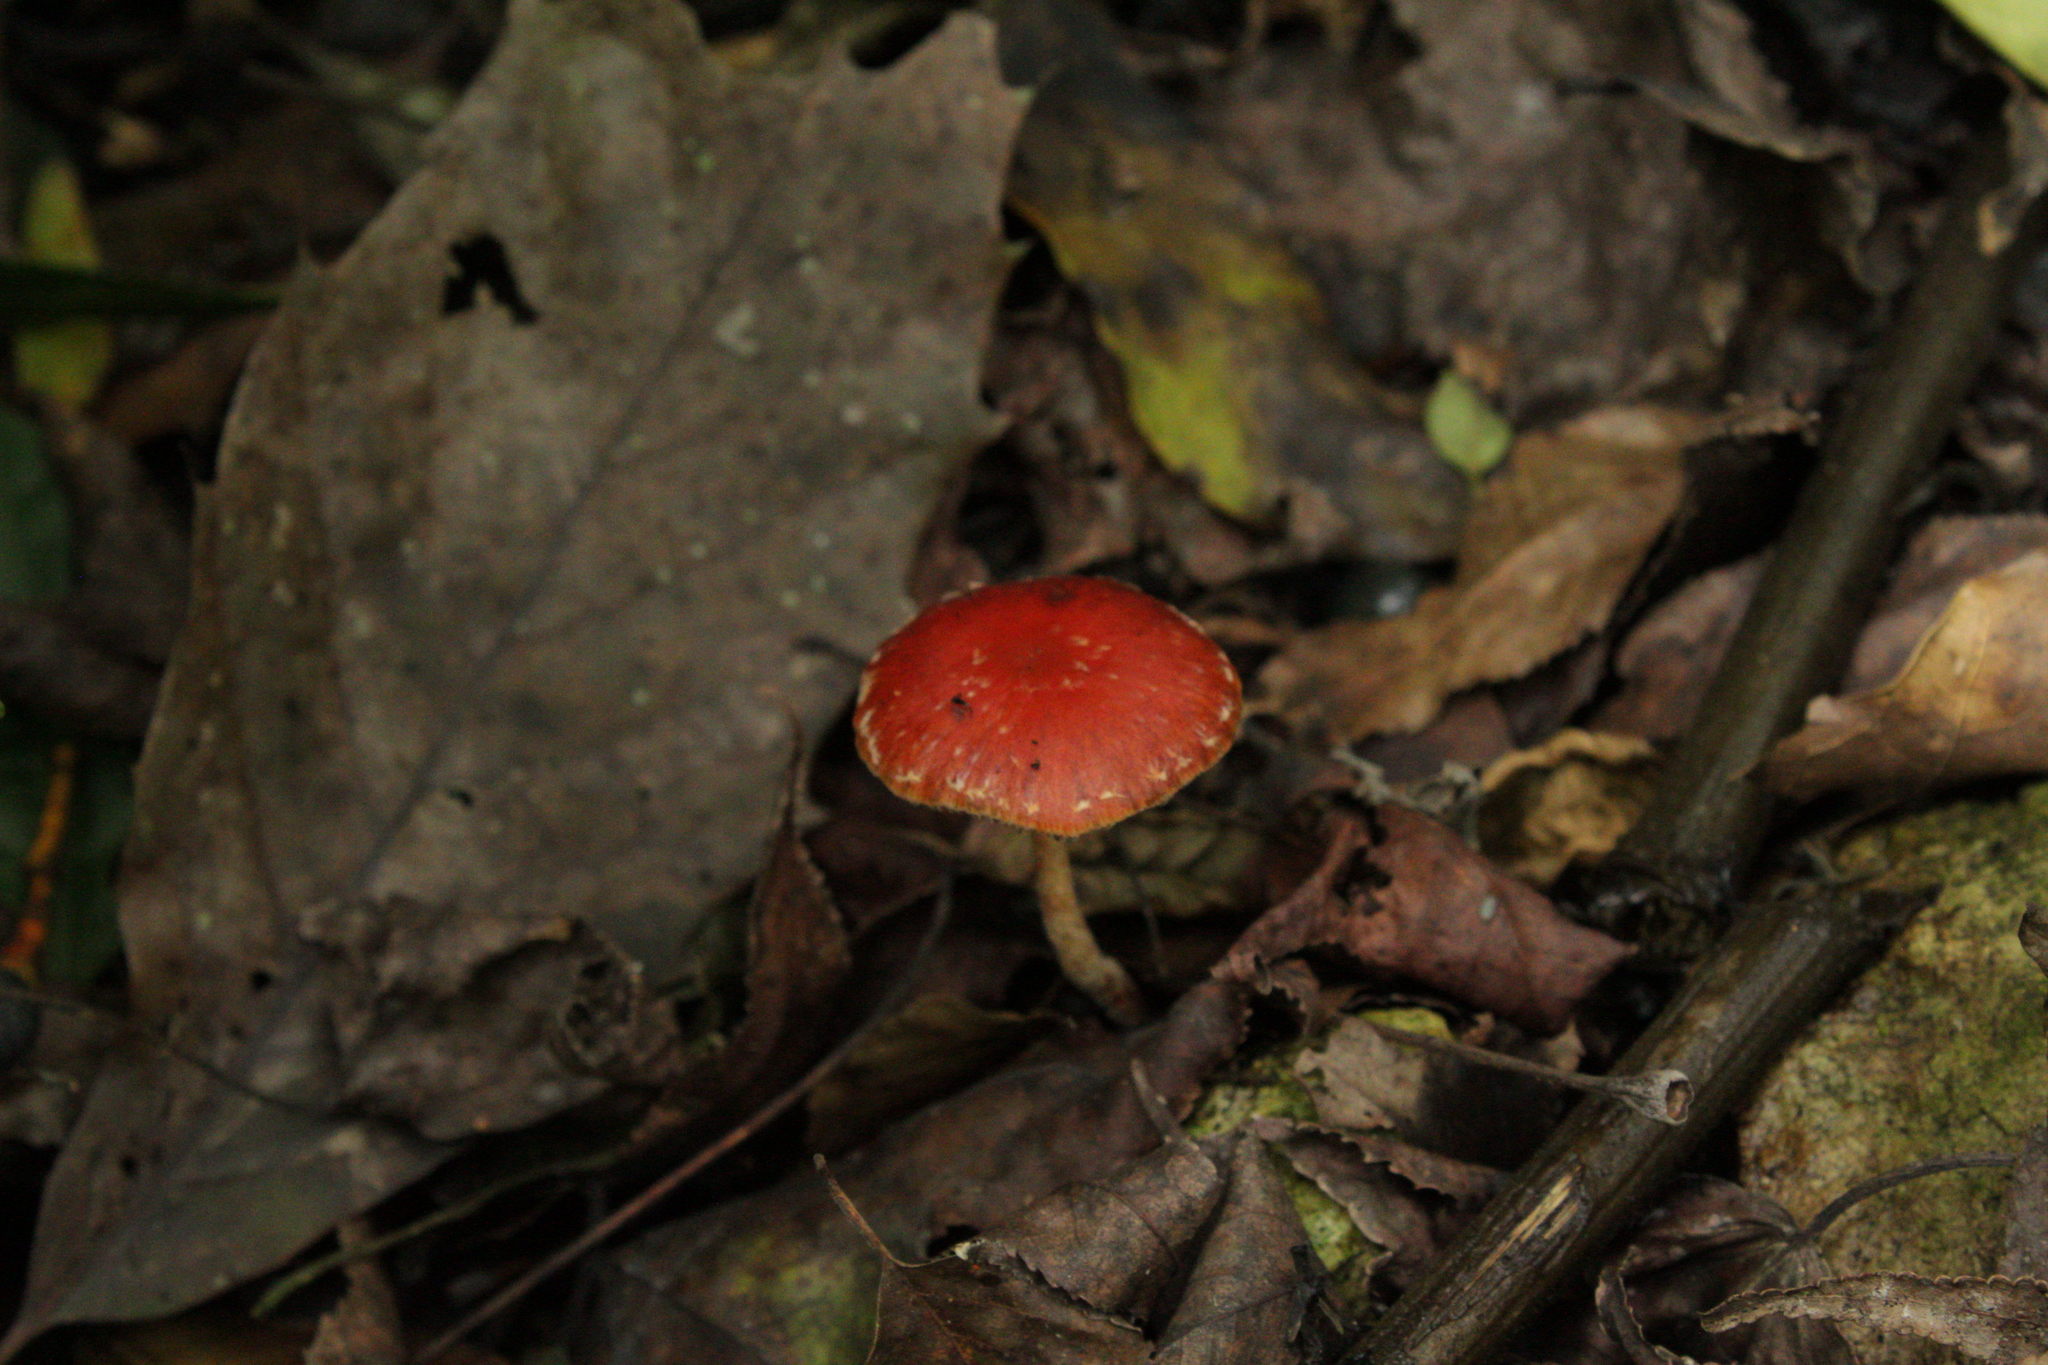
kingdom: Fungi
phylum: Basidiomycota
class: Agaricomycetes
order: Agaricales
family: Strophariaceae
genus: Leratiomyces
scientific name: Leratiomyces ceres
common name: Redlead roundhead
